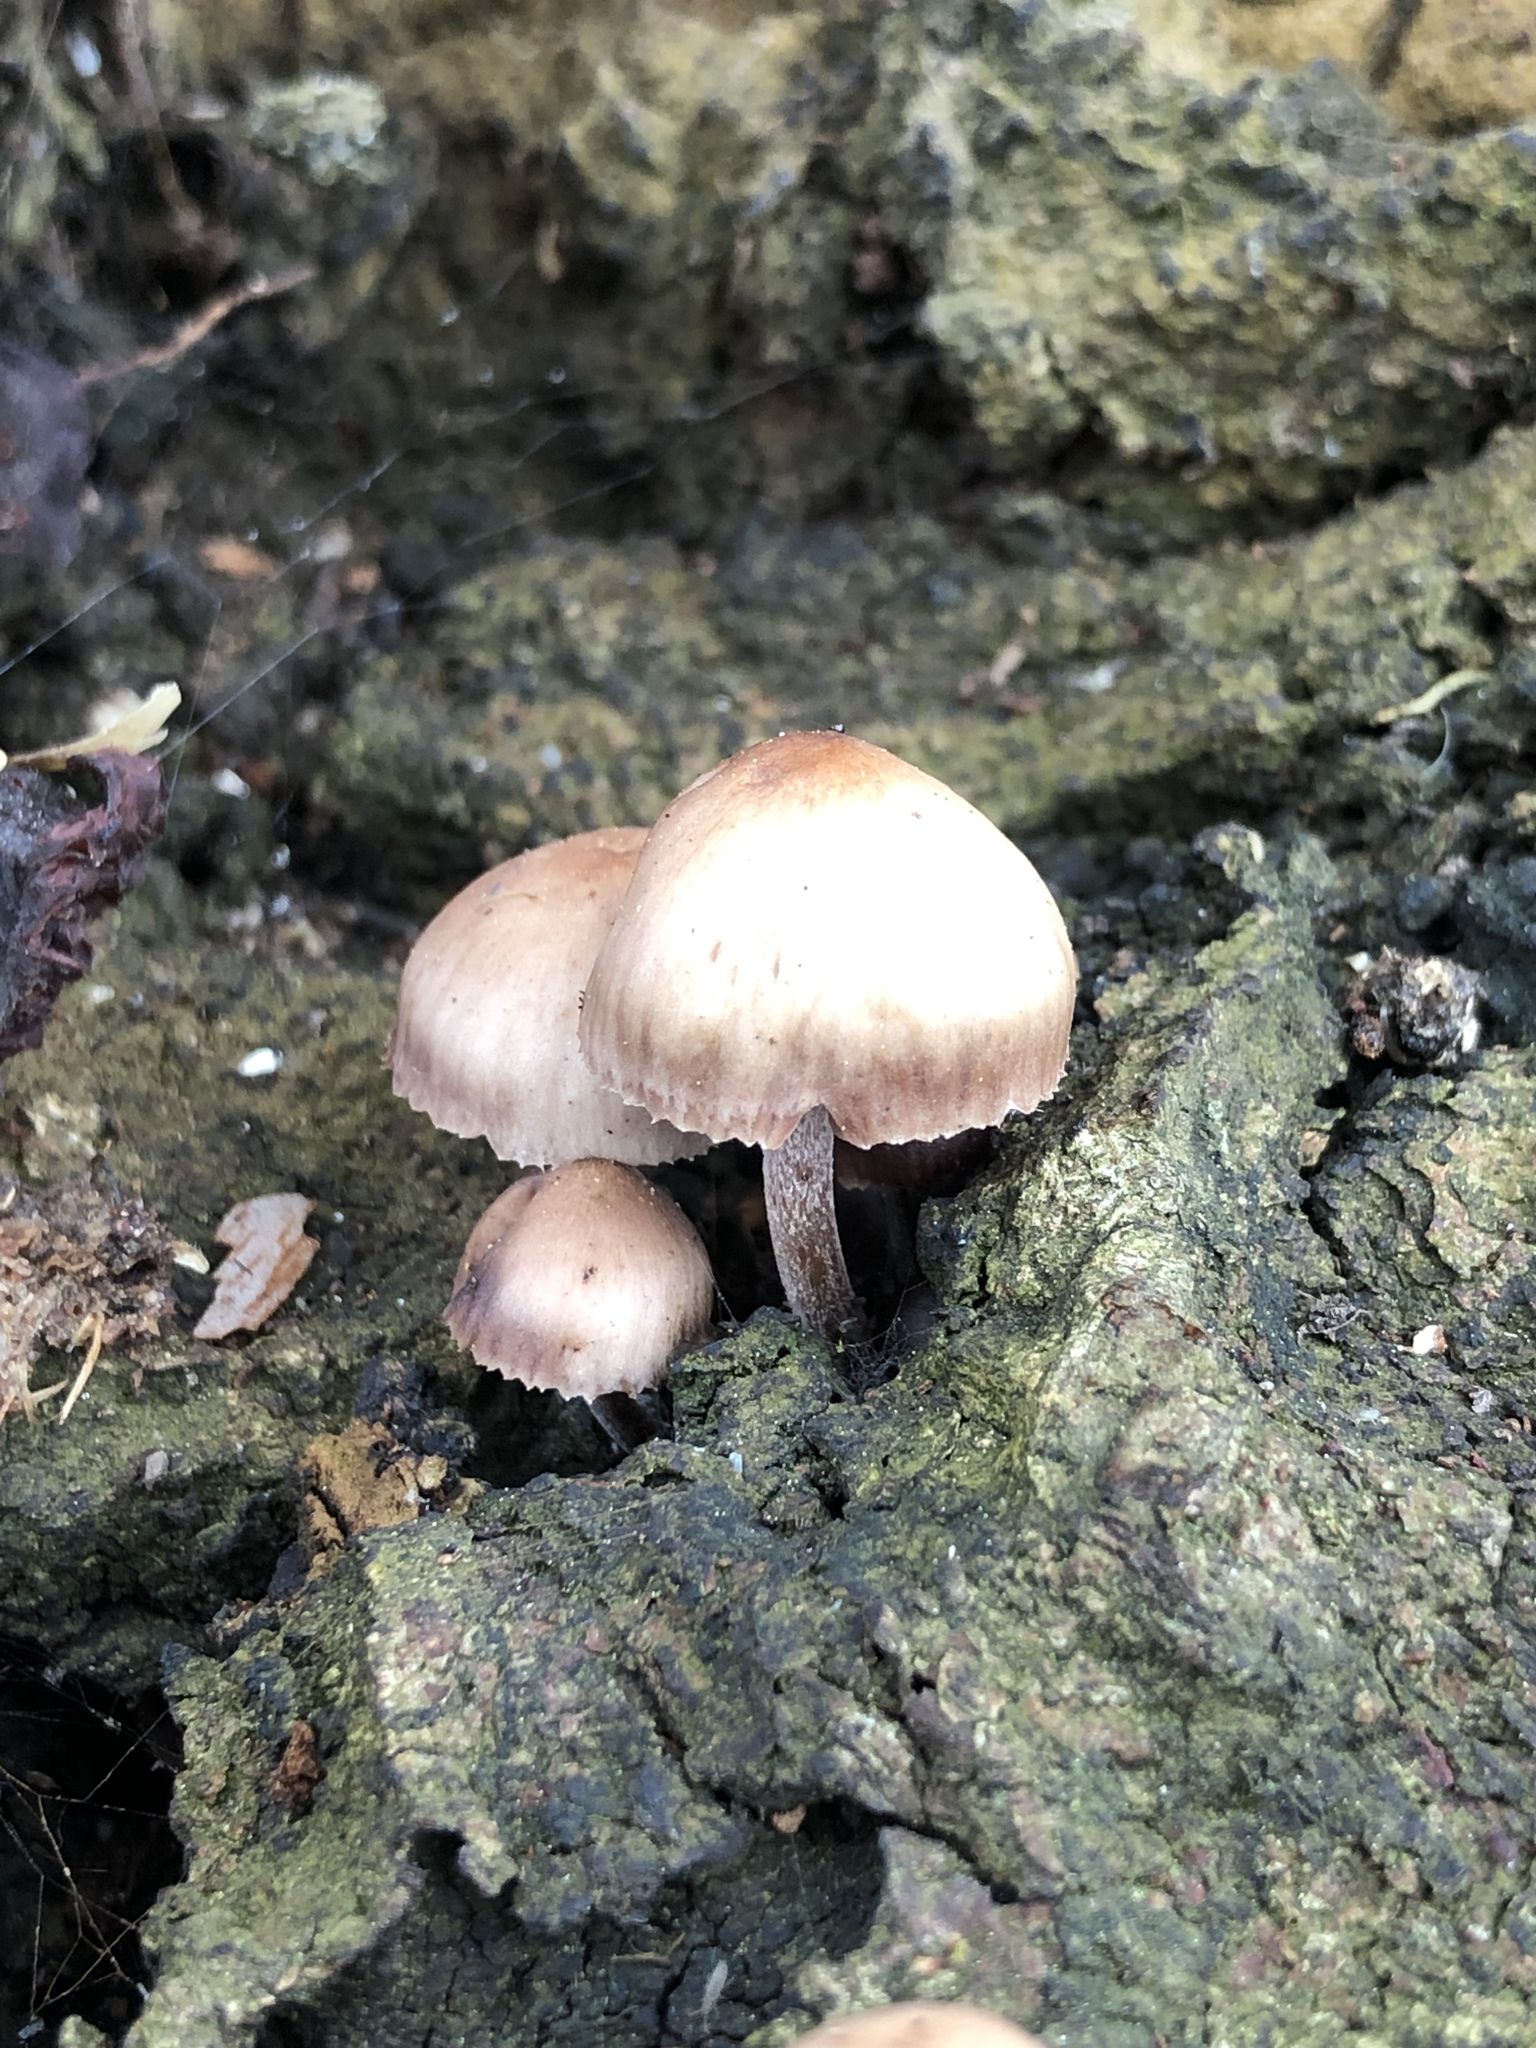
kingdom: Fungi
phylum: Basidiomycota
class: Agaricomycetes
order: Agaricales
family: Mycenaceae
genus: Mycena
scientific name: Mycena clarkeana
